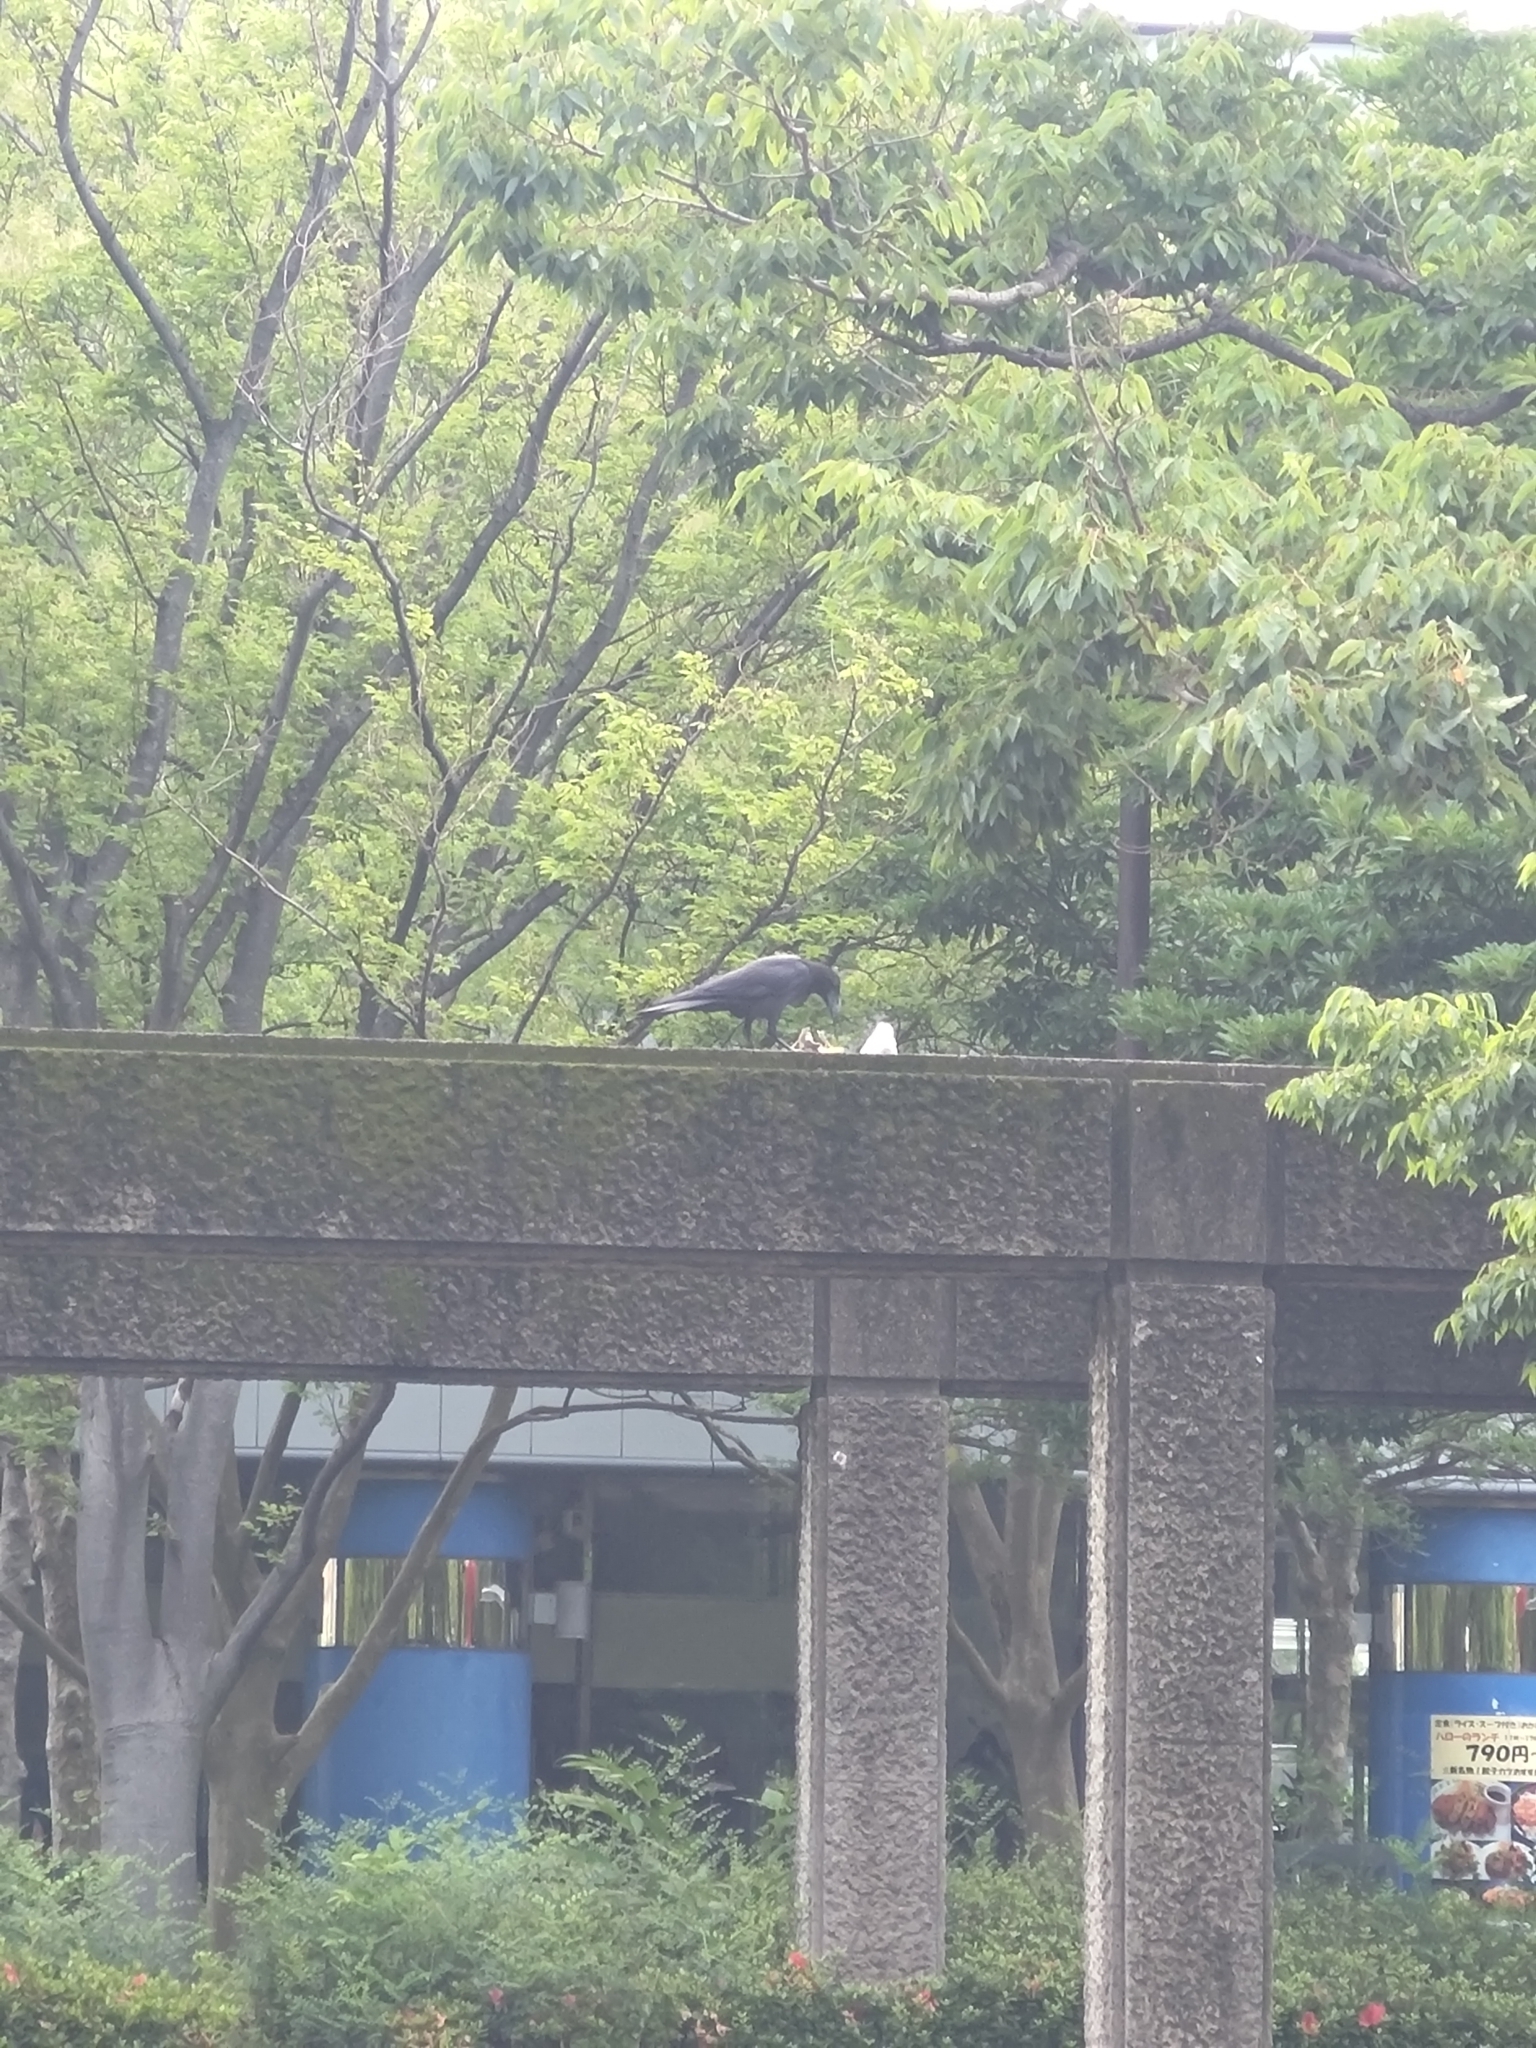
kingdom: Animalia
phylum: Chordata
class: Aves
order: Passeriformes
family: Corvidae
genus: Corvus
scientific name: Corvus macrorhynchos
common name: Large-billed crow
